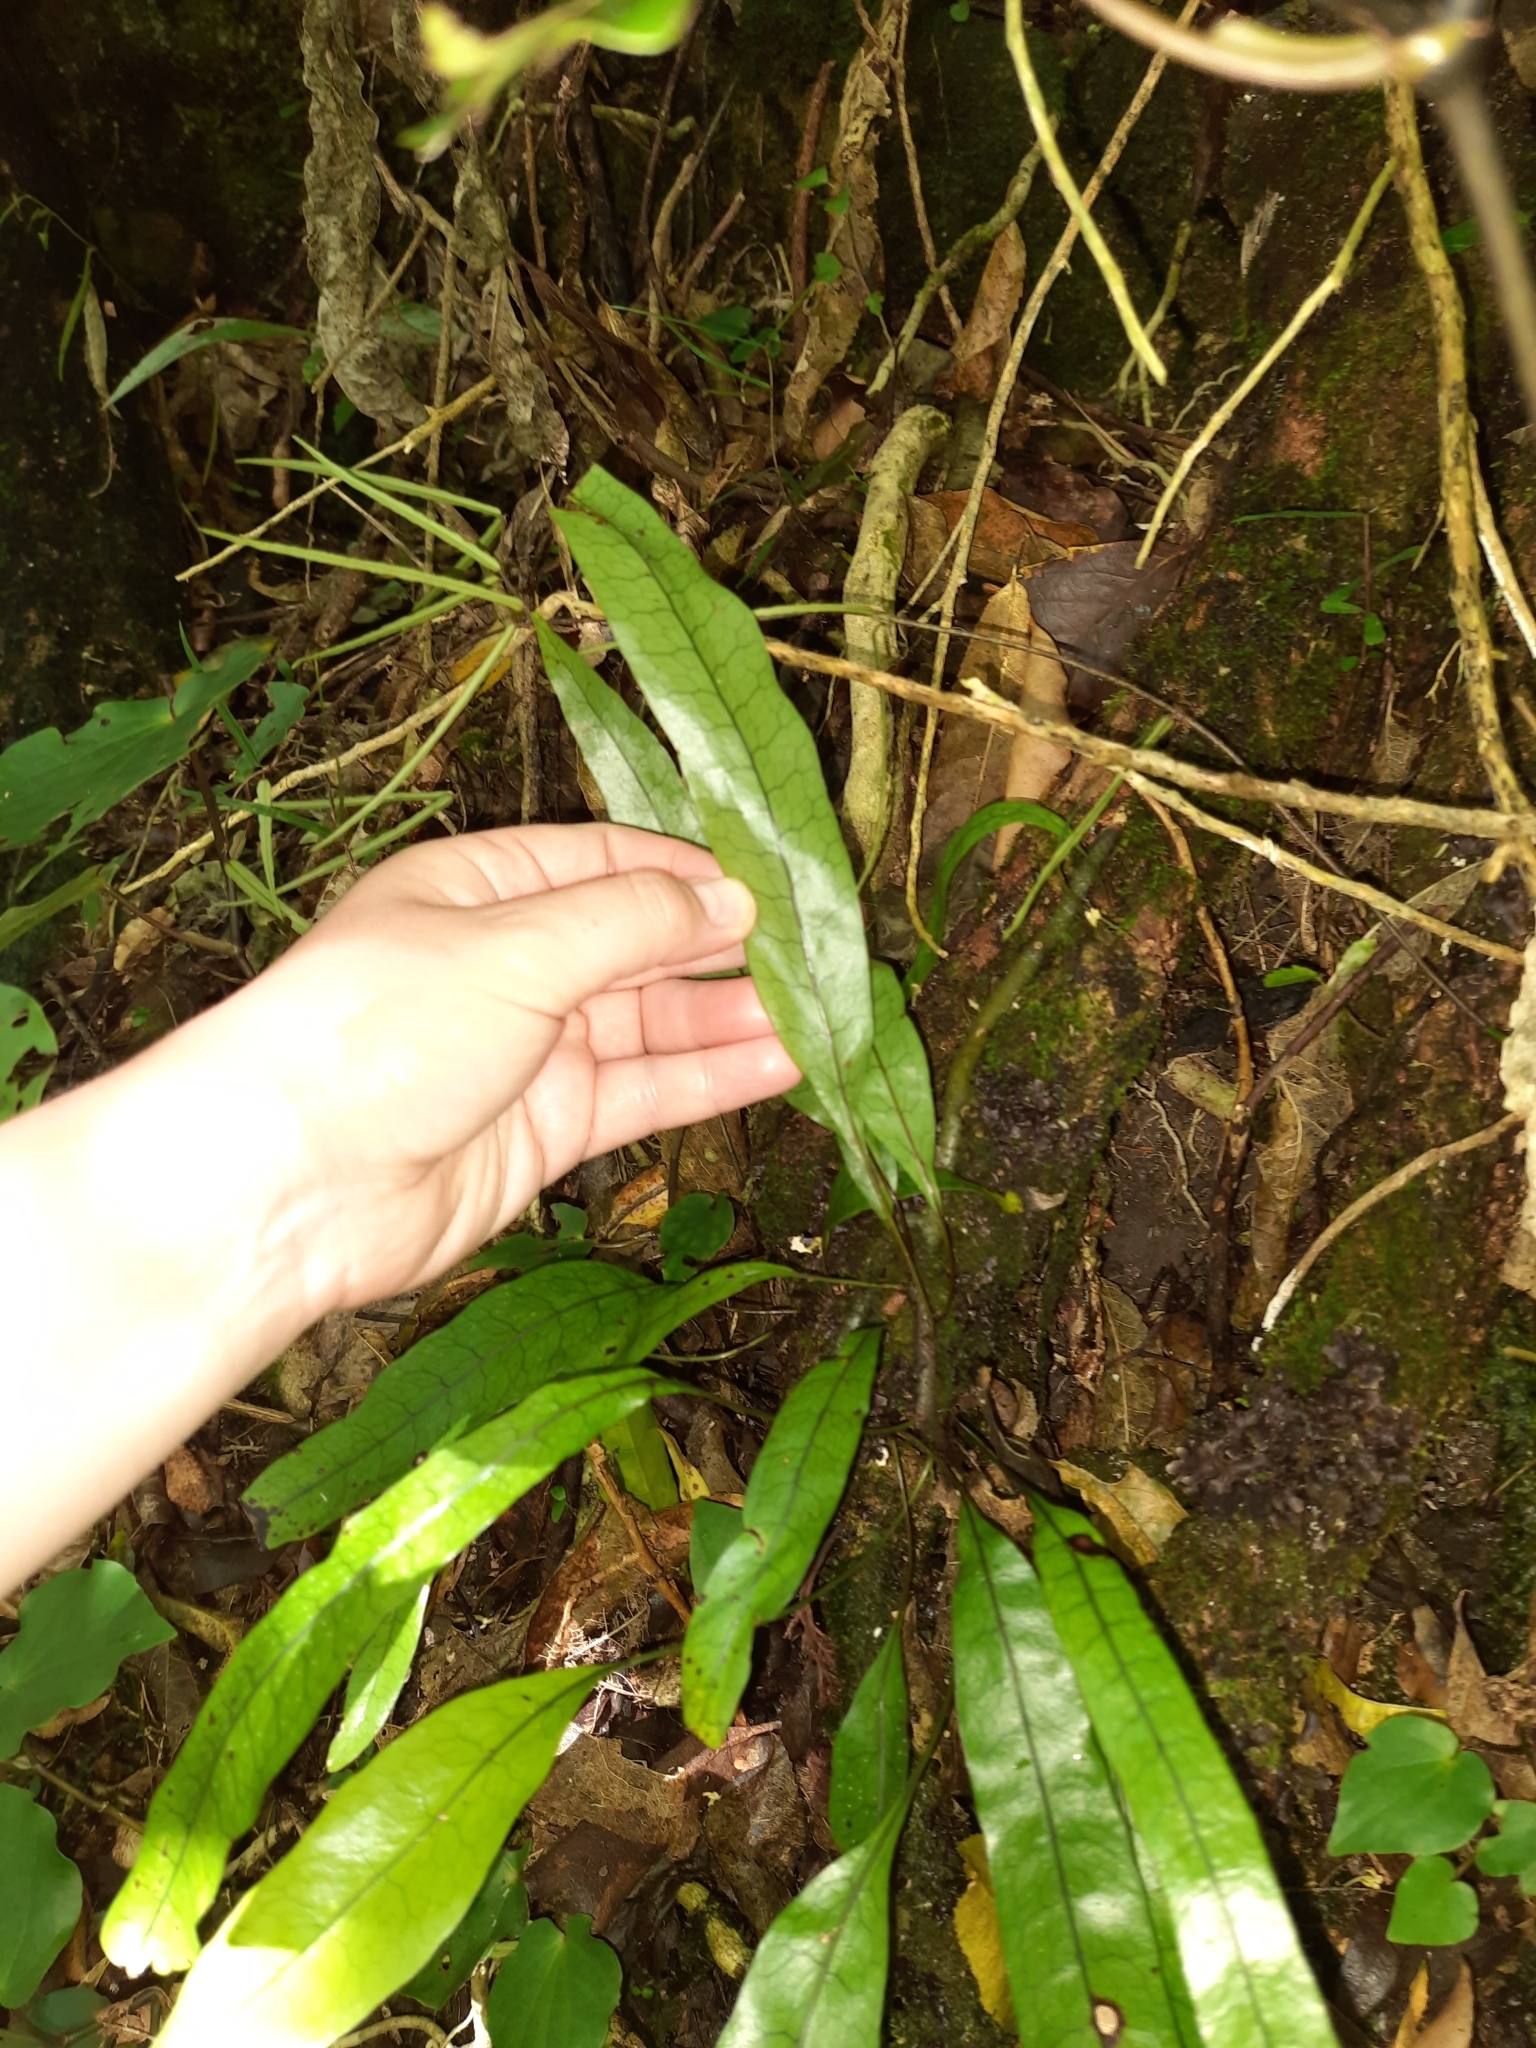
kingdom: Plantae
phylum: Tracheophyta
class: Polypodiopsida
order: Polypodiales
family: Polypodiaceae
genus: Lecanopteris
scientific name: Lecanopteris pustulata
